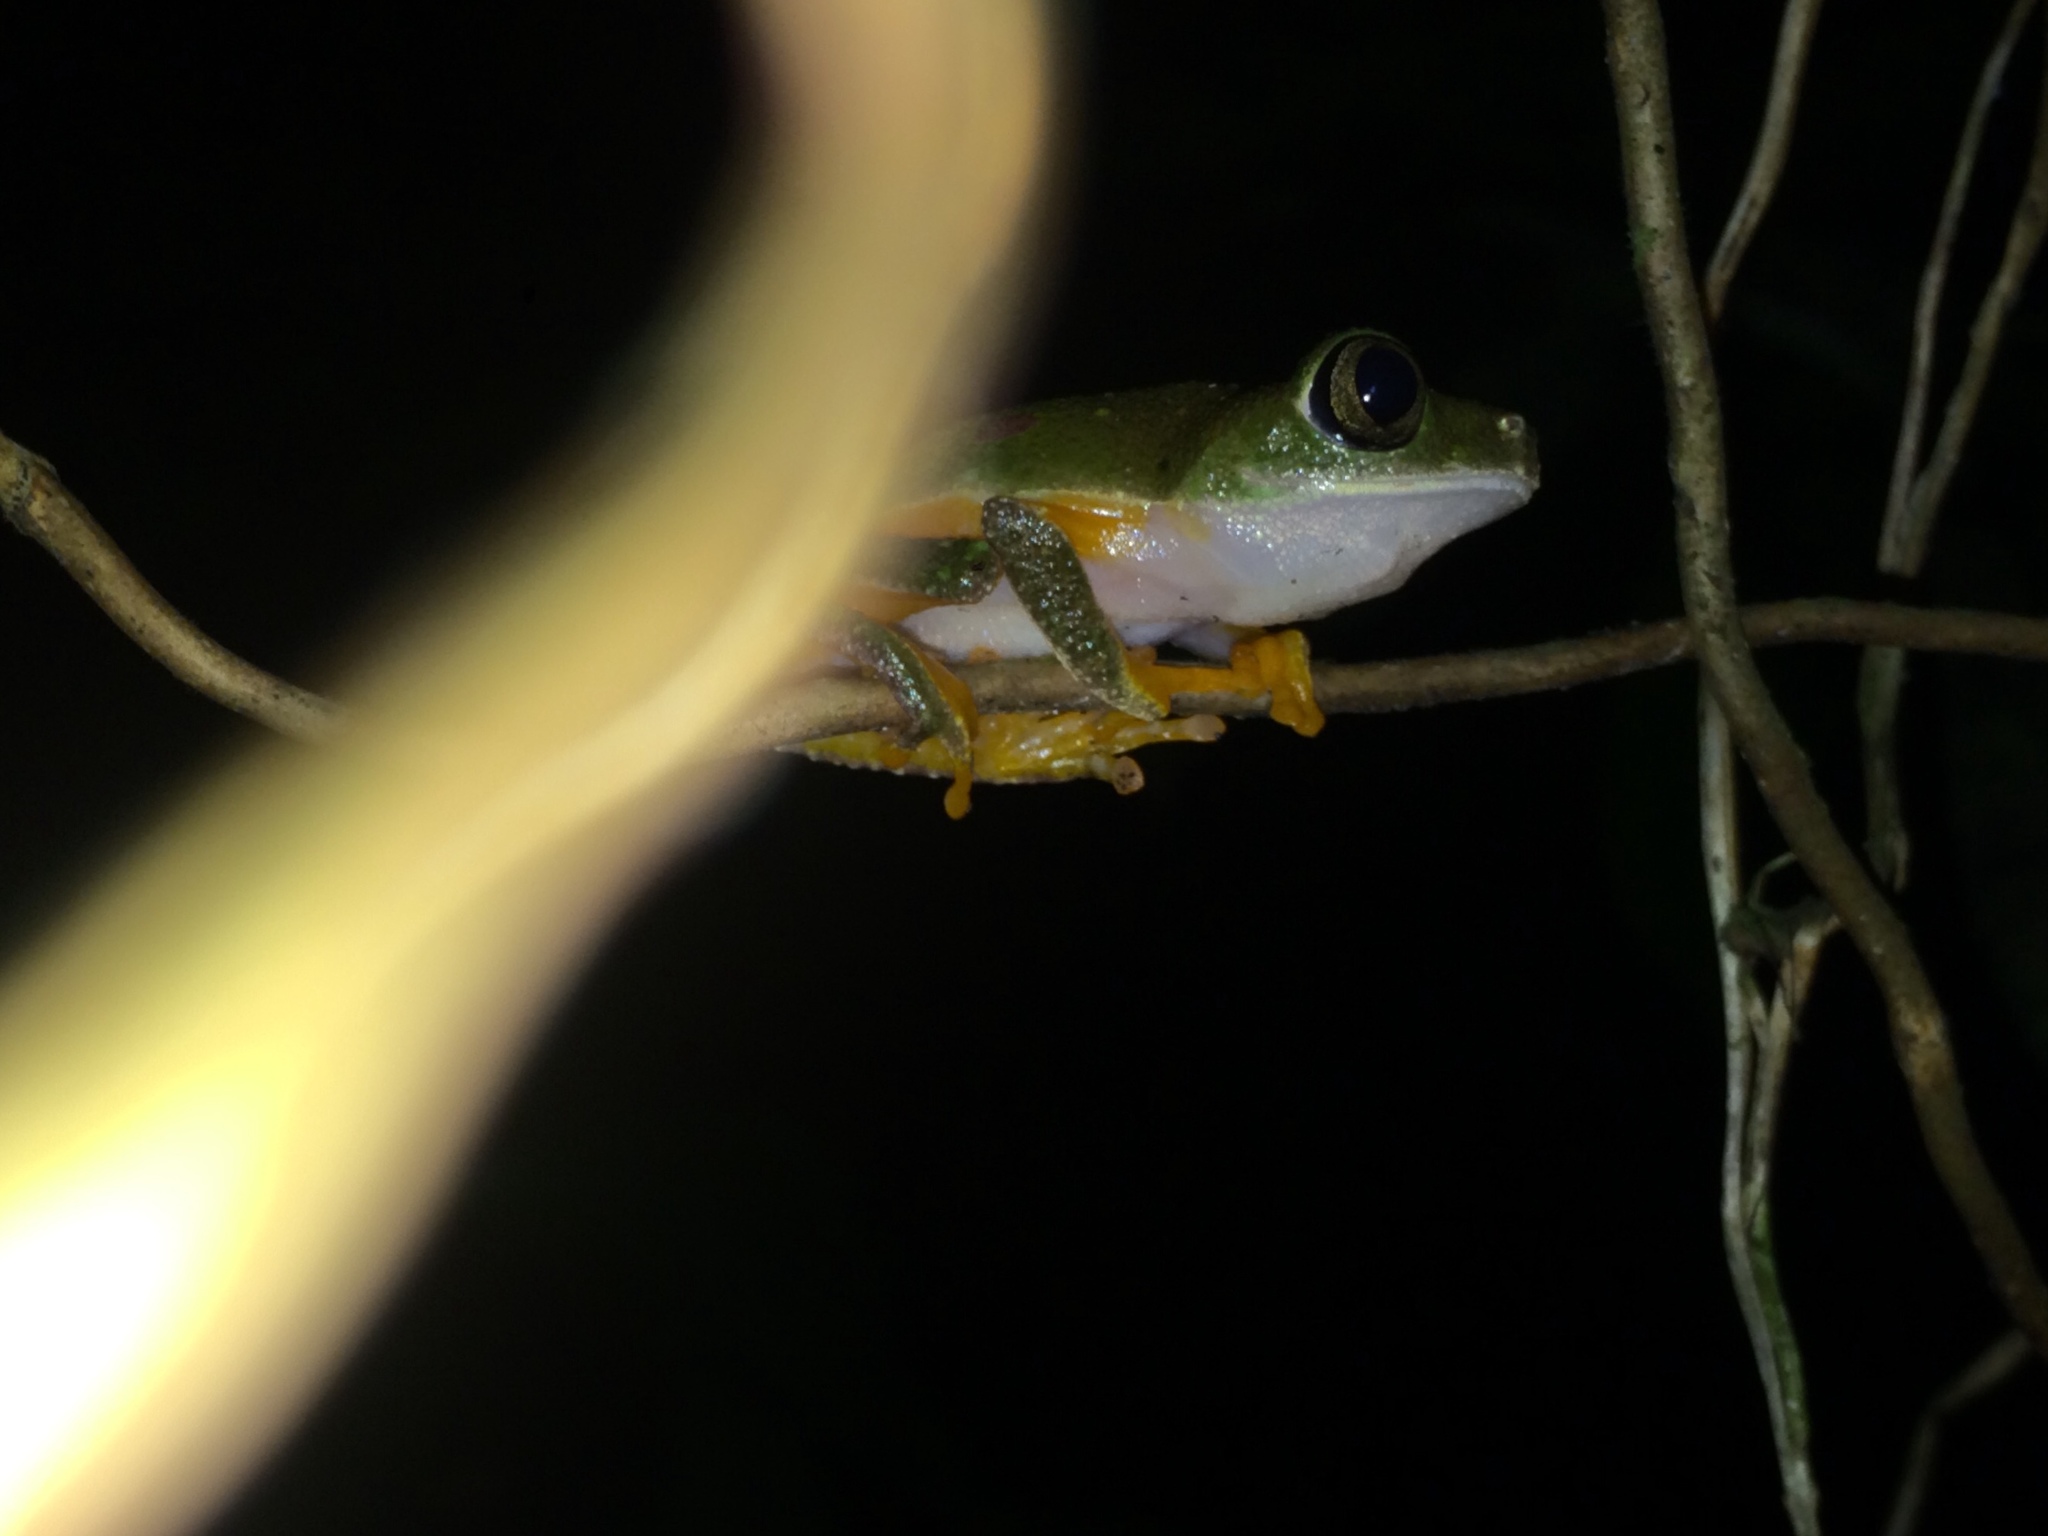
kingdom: Animalia
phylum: Chordata
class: Amphibia
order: Anura
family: Phyllomedusidae
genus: Hylomantis
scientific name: Hylomantis granulosa
